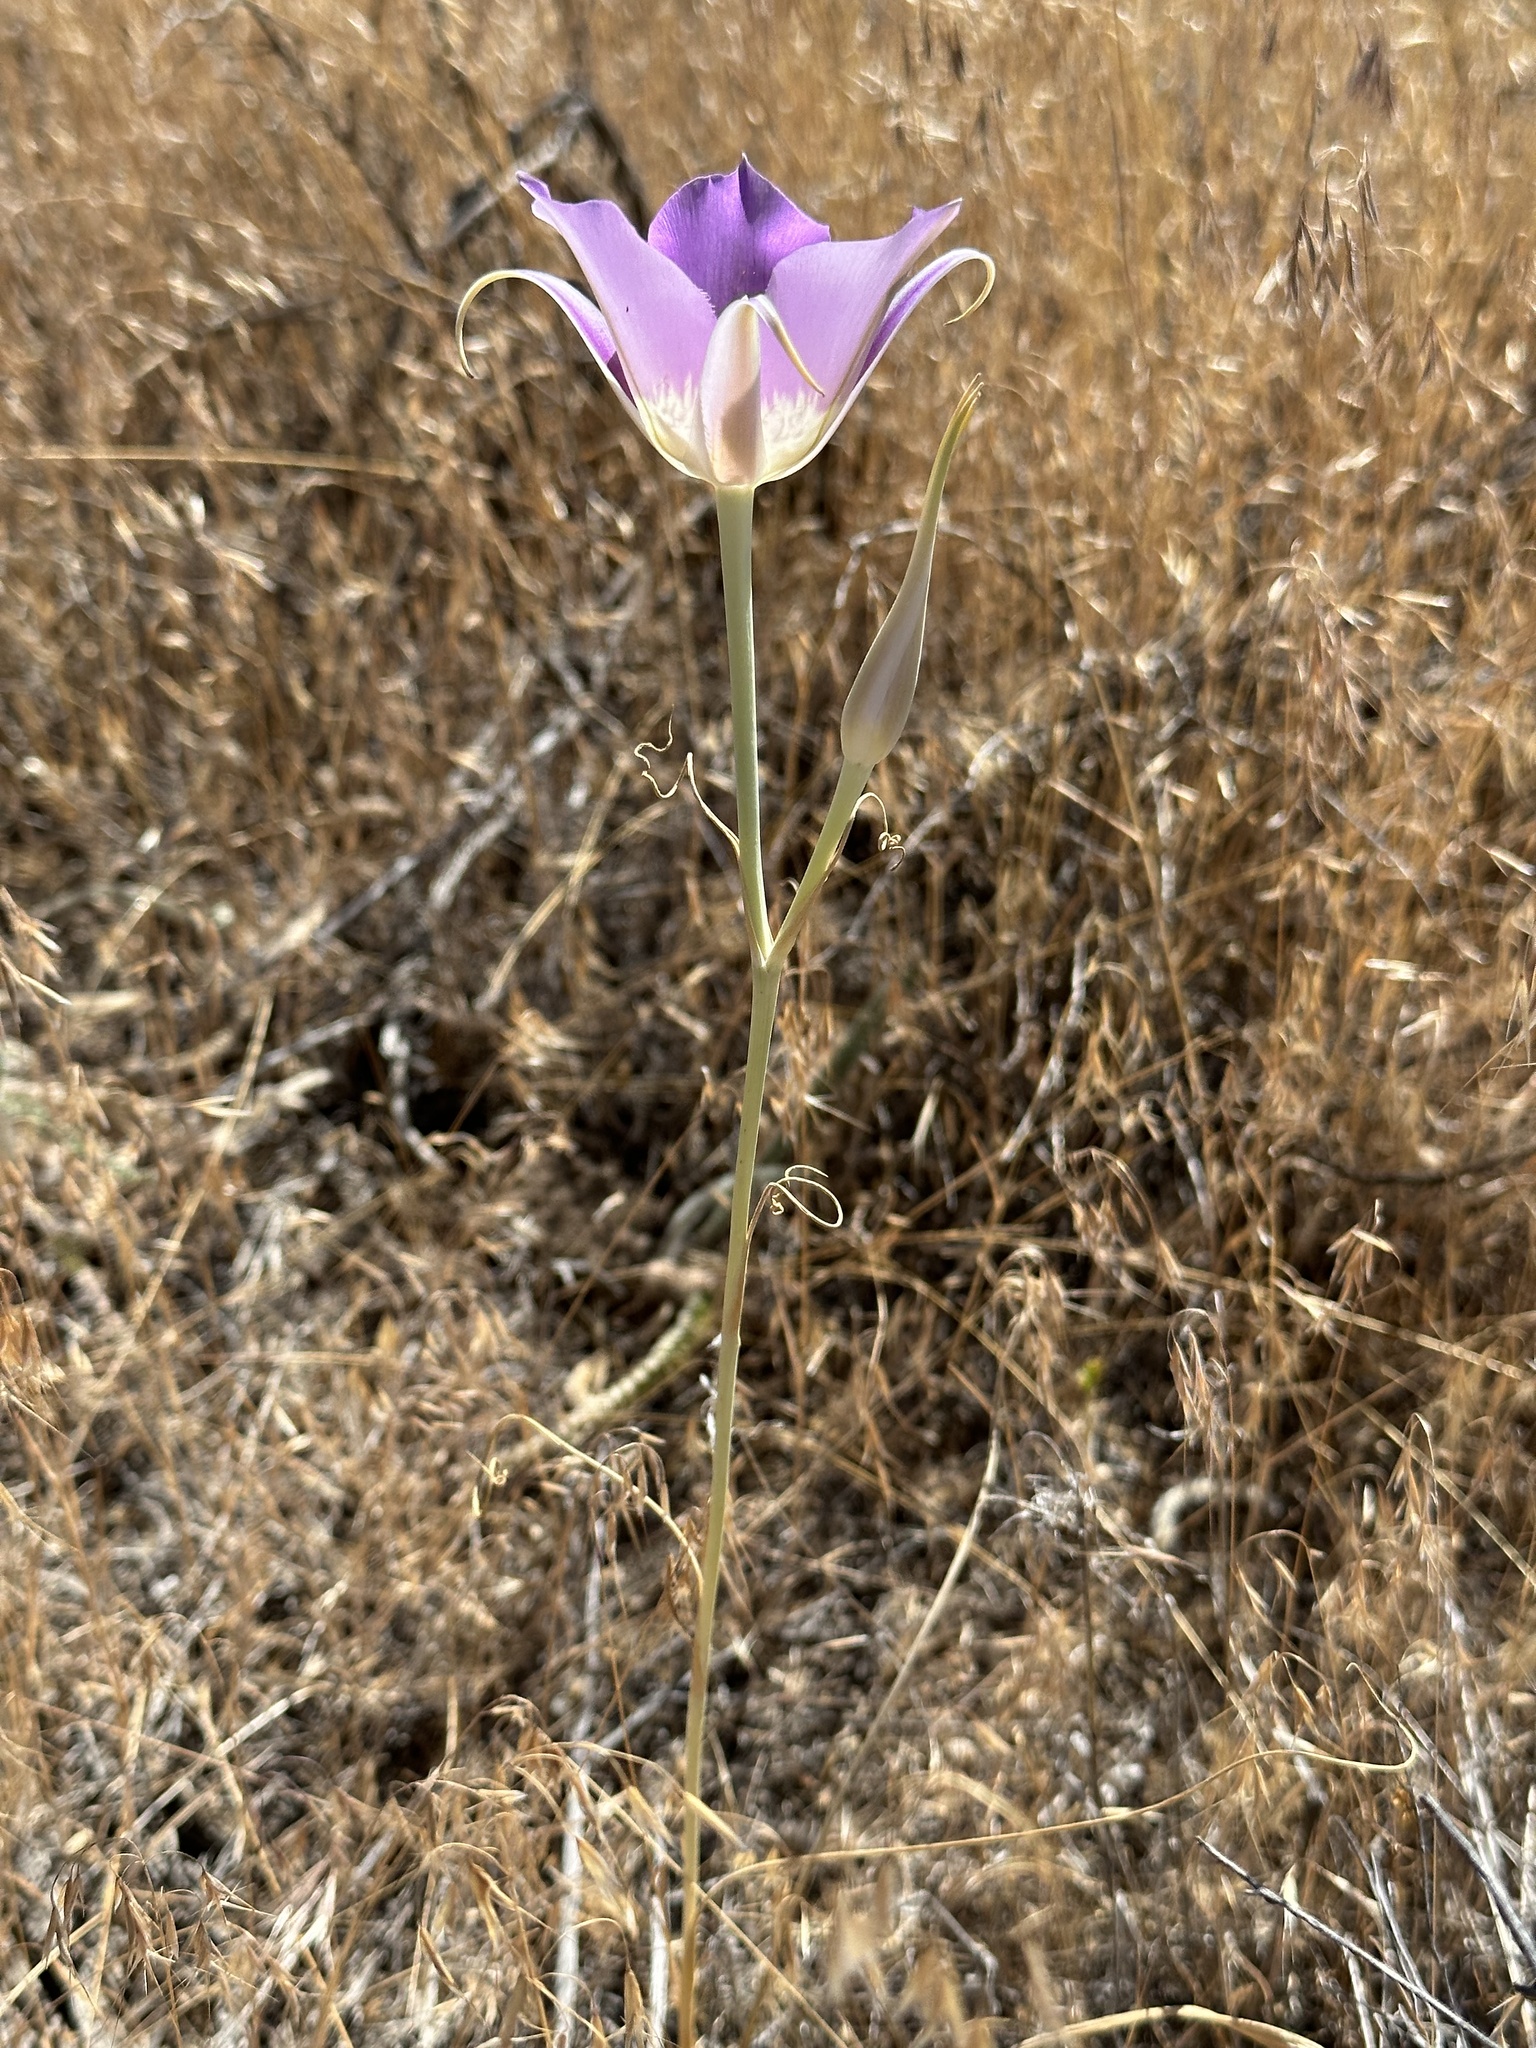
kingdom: Plantae
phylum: Tracheophyta
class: Liliopsida
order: Liliales
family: Liliaceae
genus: Calochortus
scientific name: Calochortus macrocarpus
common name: Green-band mariposa lily
